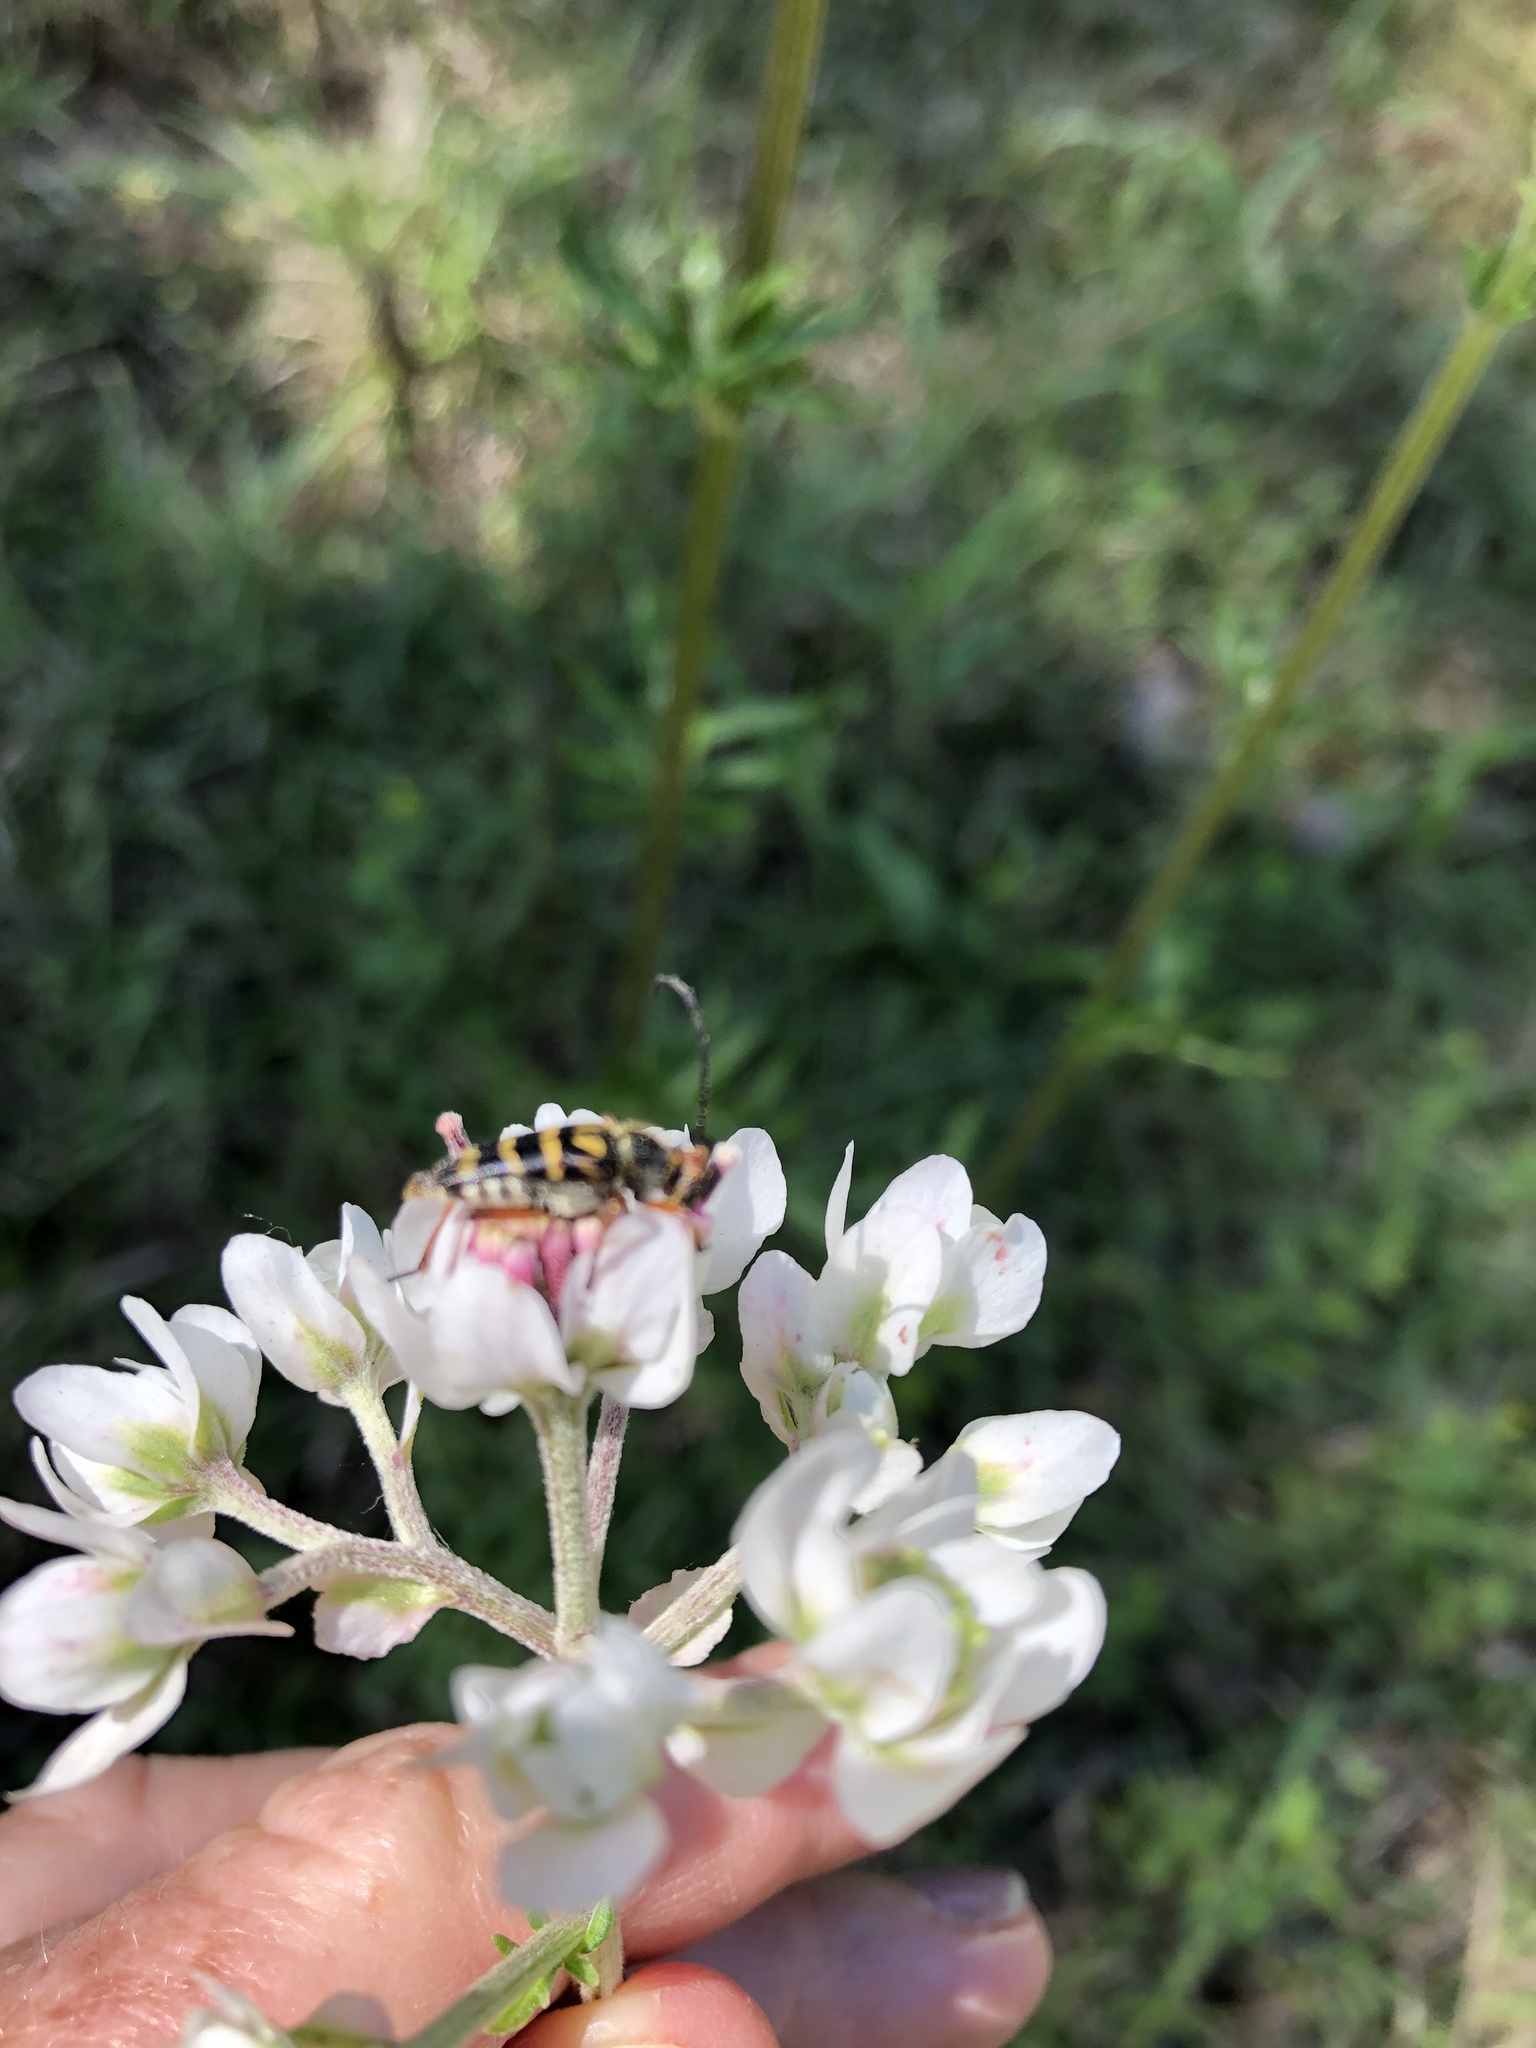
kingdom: Animalia
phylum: Arthropoda
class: Insecta
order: Coleoptera
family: Cerambycidae
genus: Typocerus
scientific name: Typocerus zebra
